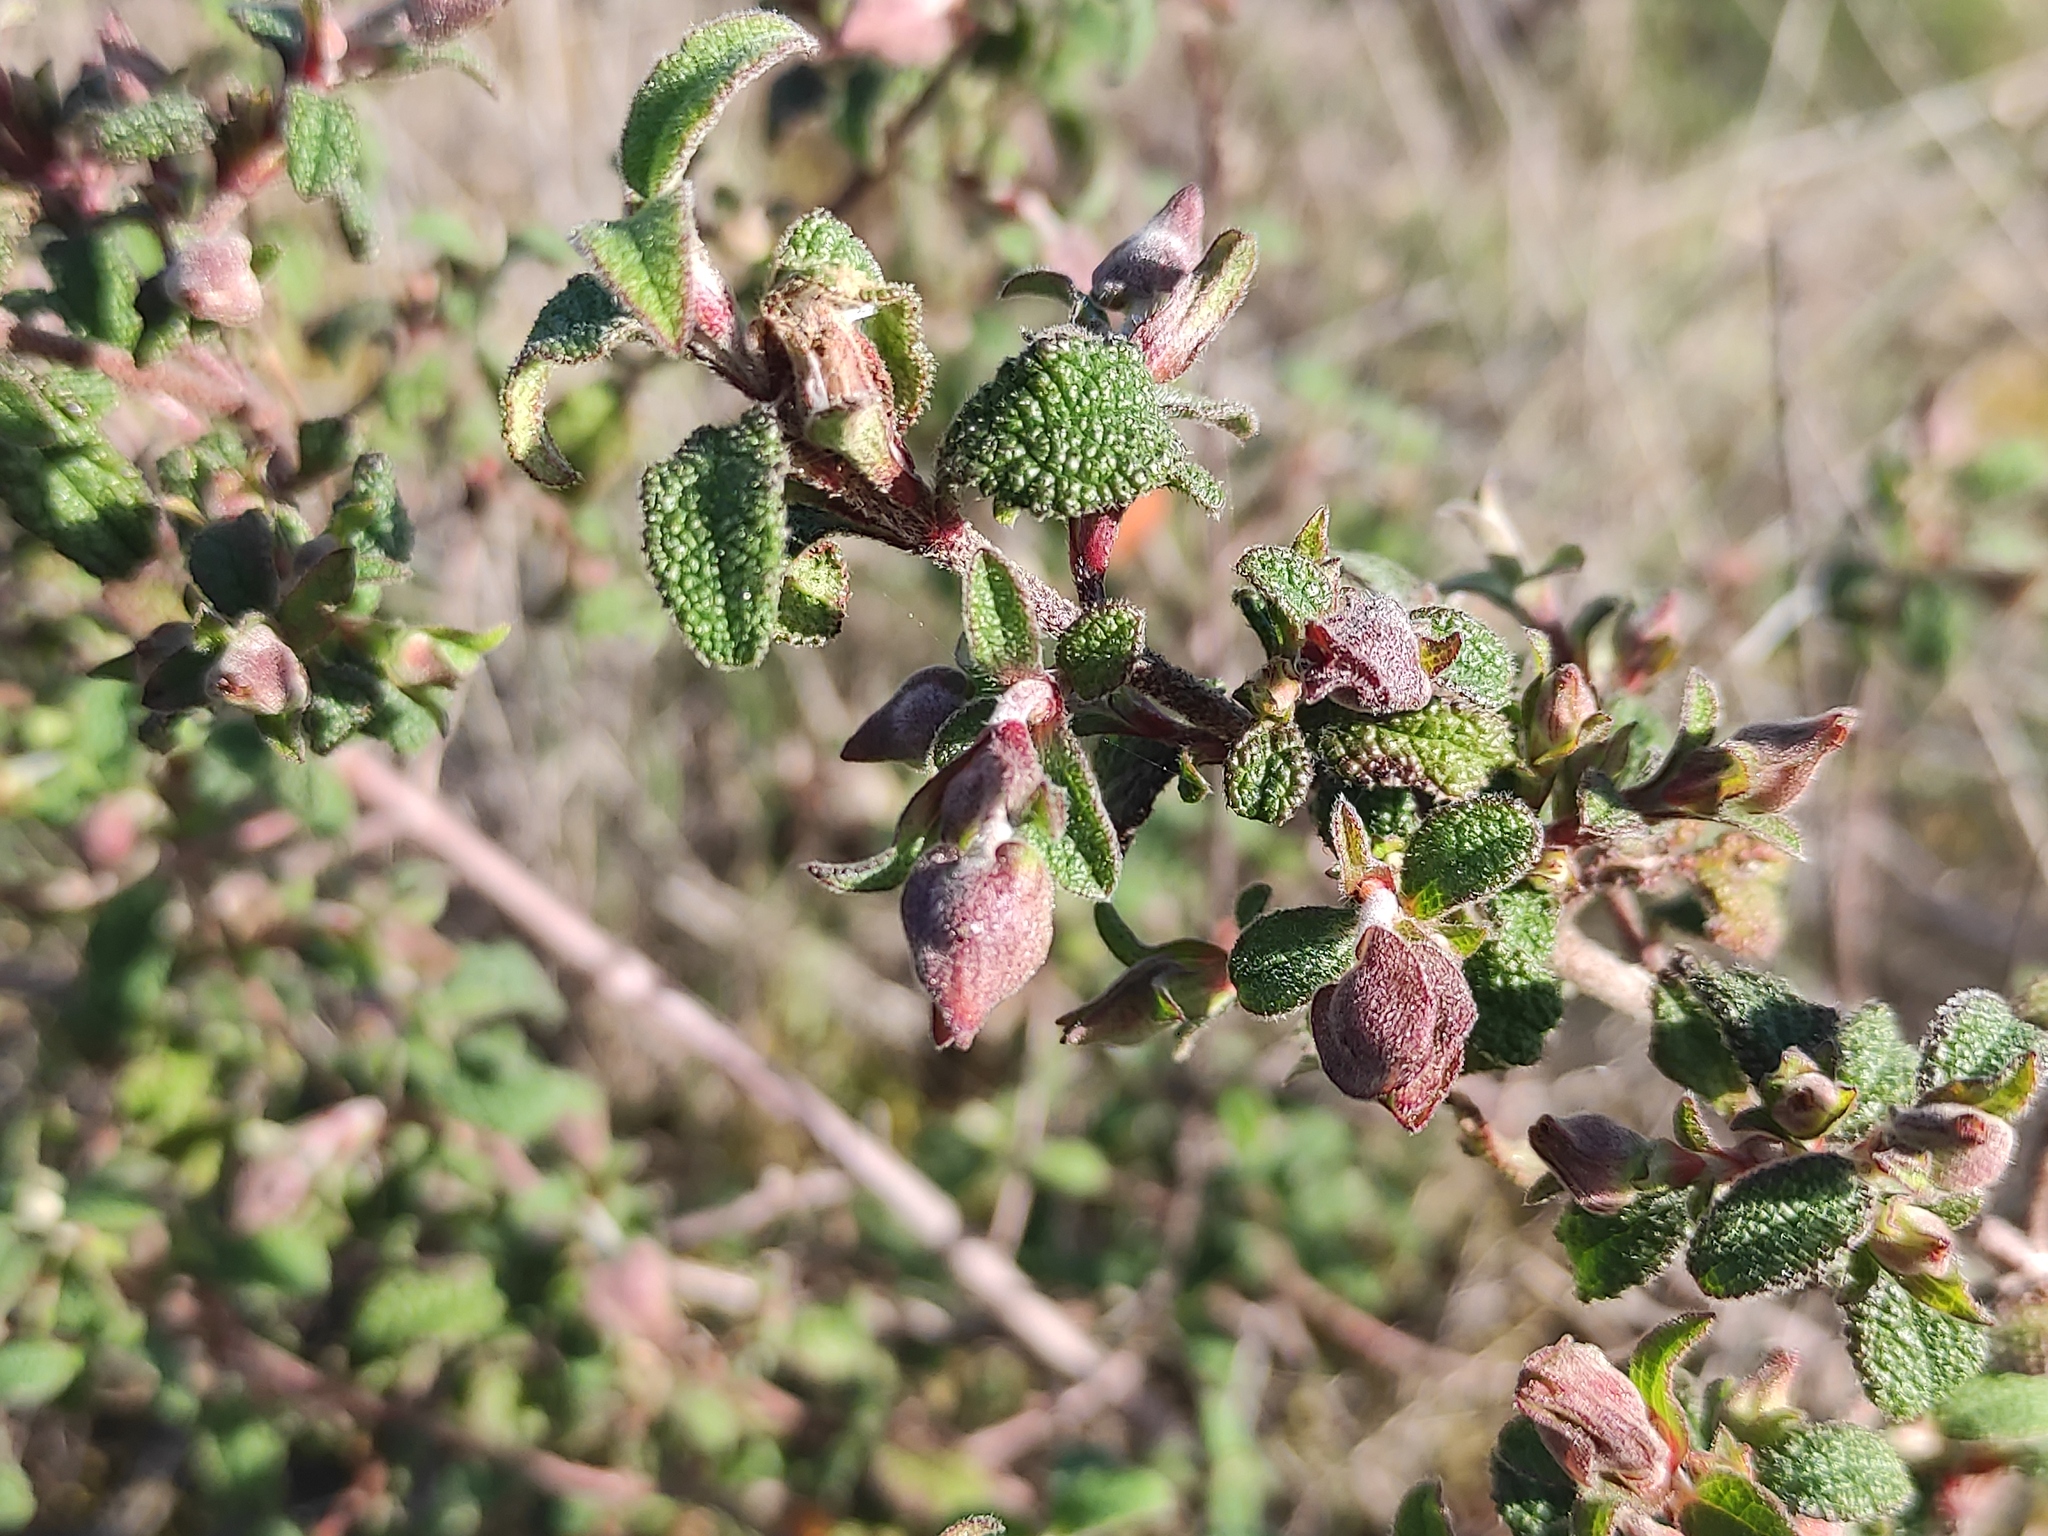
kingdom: Plantae
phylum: Tracheophyta
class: Magnoliopsida
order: Malvales
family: Cistaceae
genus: Cistus
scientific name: Cistus salviifolius
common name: Salvia cistus
